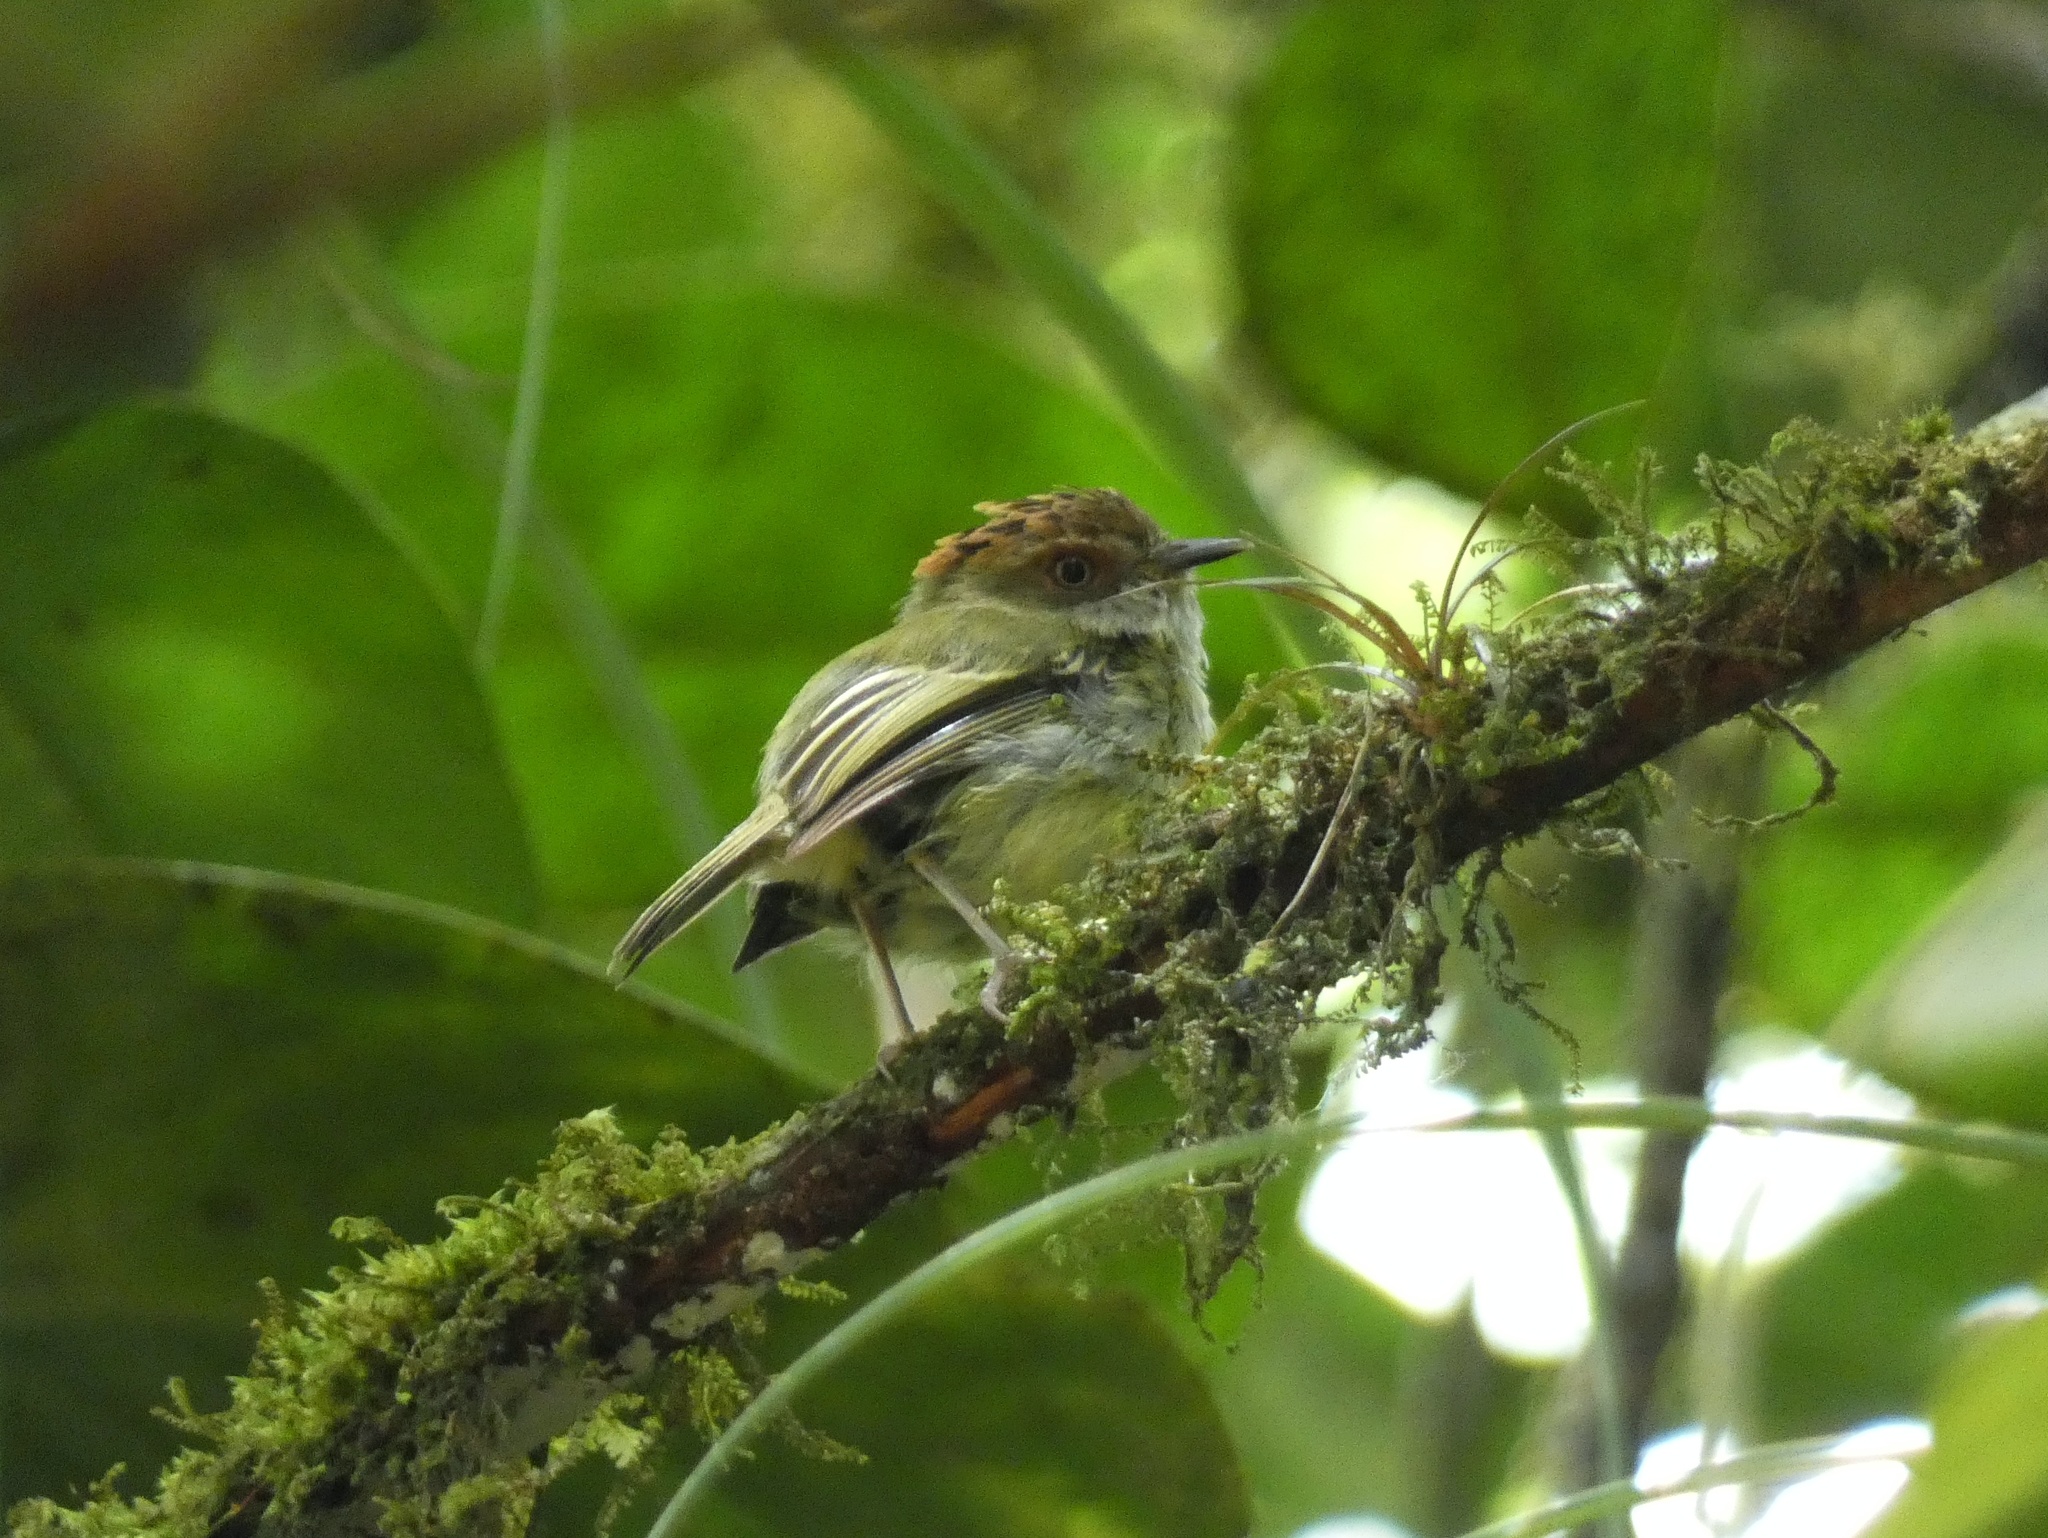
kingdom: Animalia
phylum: Chordata
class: Aves
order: Passeriformes
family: Tyrannidae
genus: Lophotriccus
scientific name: Lophotriccus pileatus
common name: Scale-crested pygmy-tyrant
